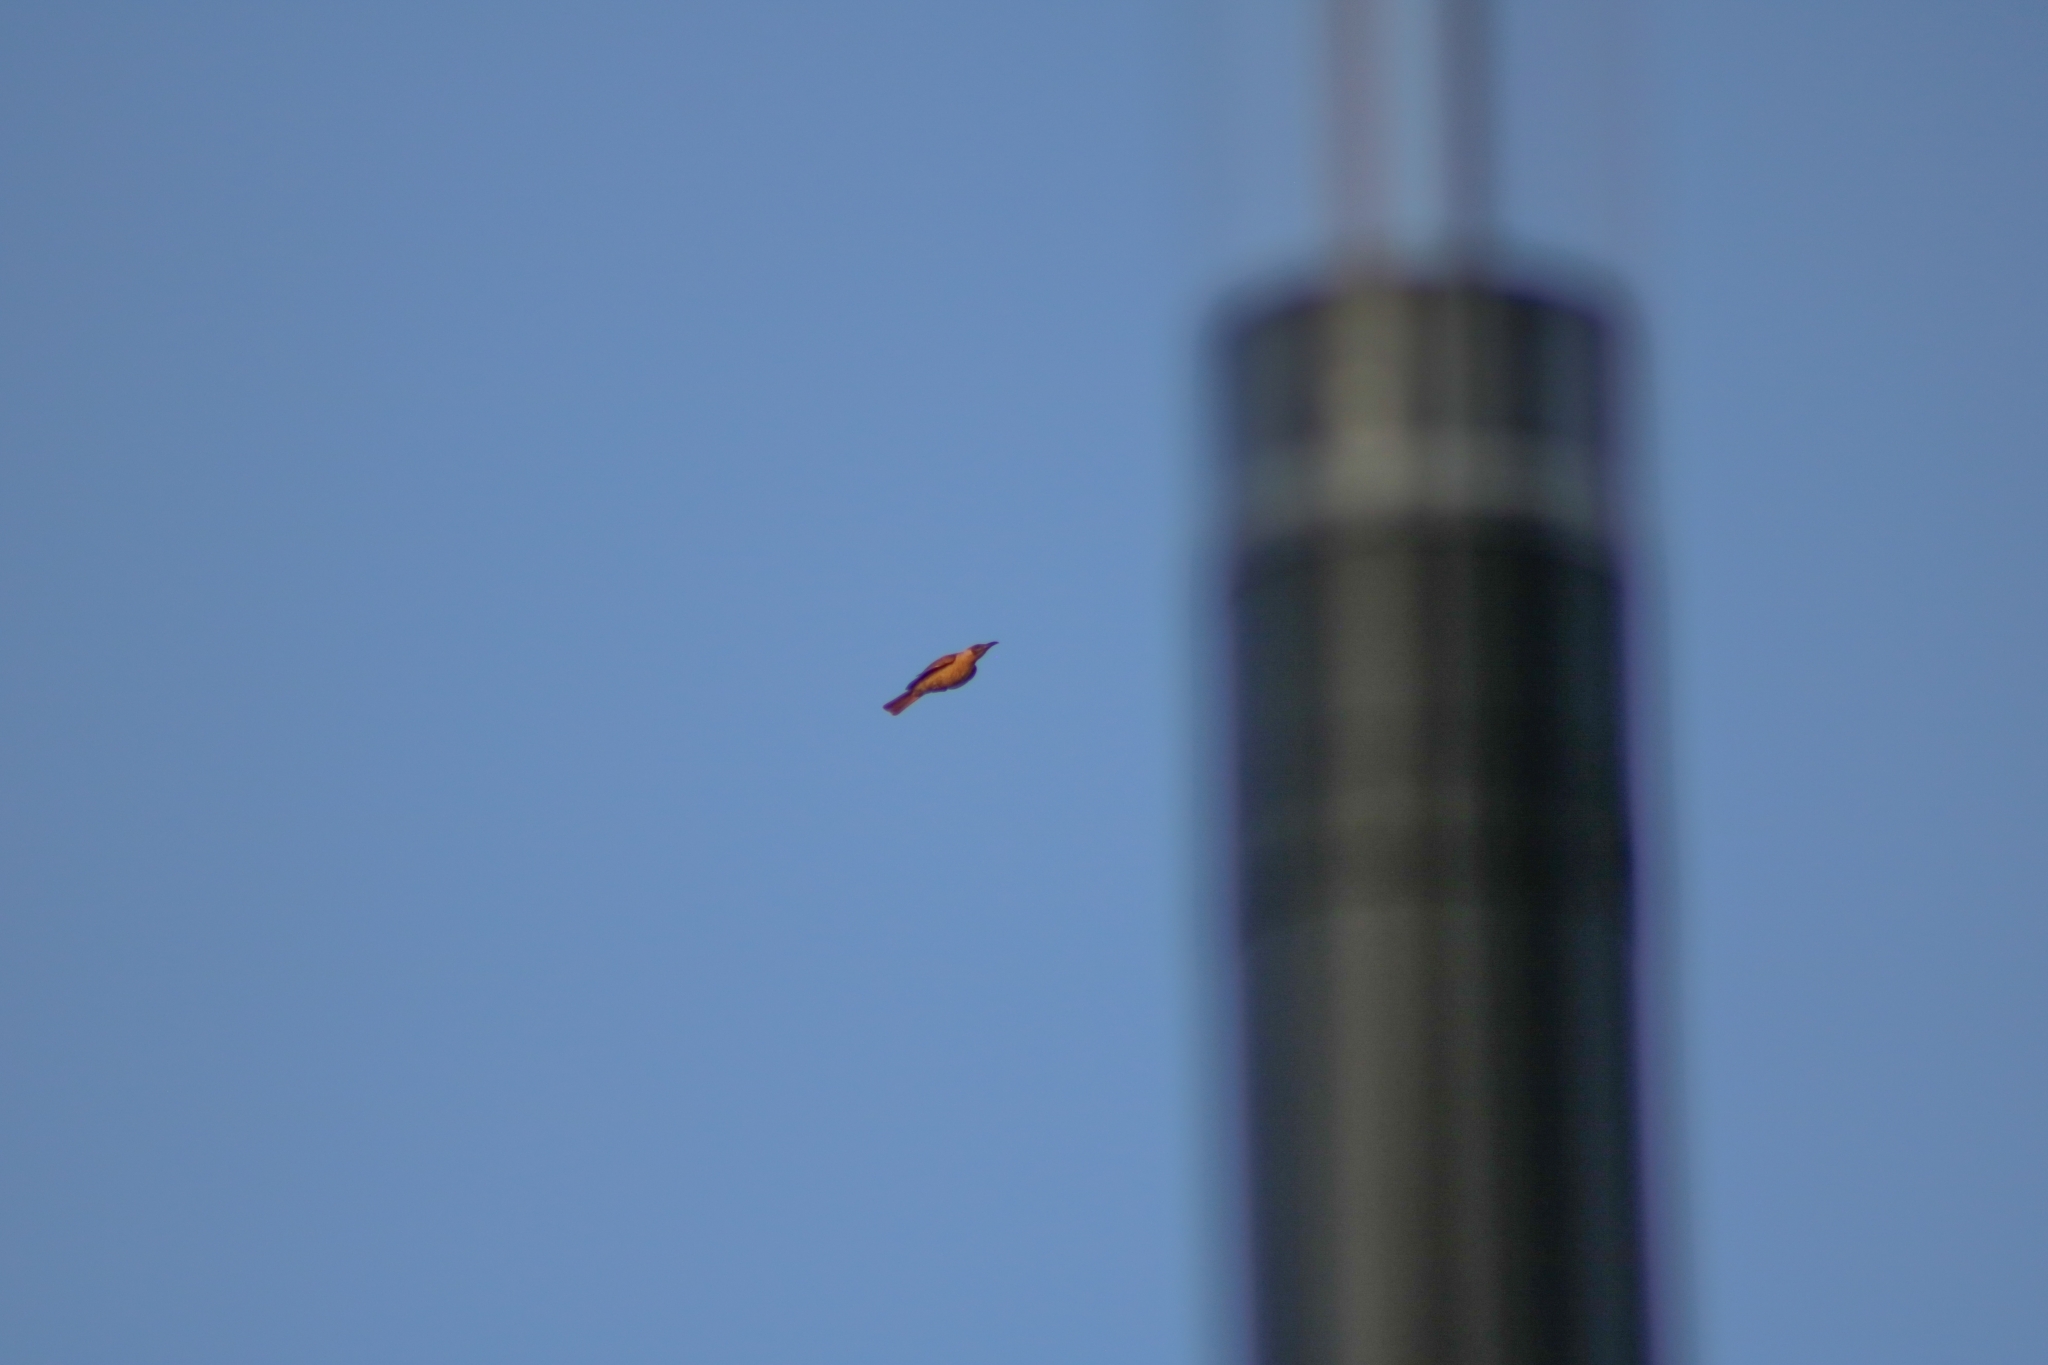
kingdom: Animalia
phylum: Chordata
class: Aves
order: Passeriformes
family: Meliphagidae
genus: Philemon
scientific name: Philemon citreogularis
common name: Little friarbird
